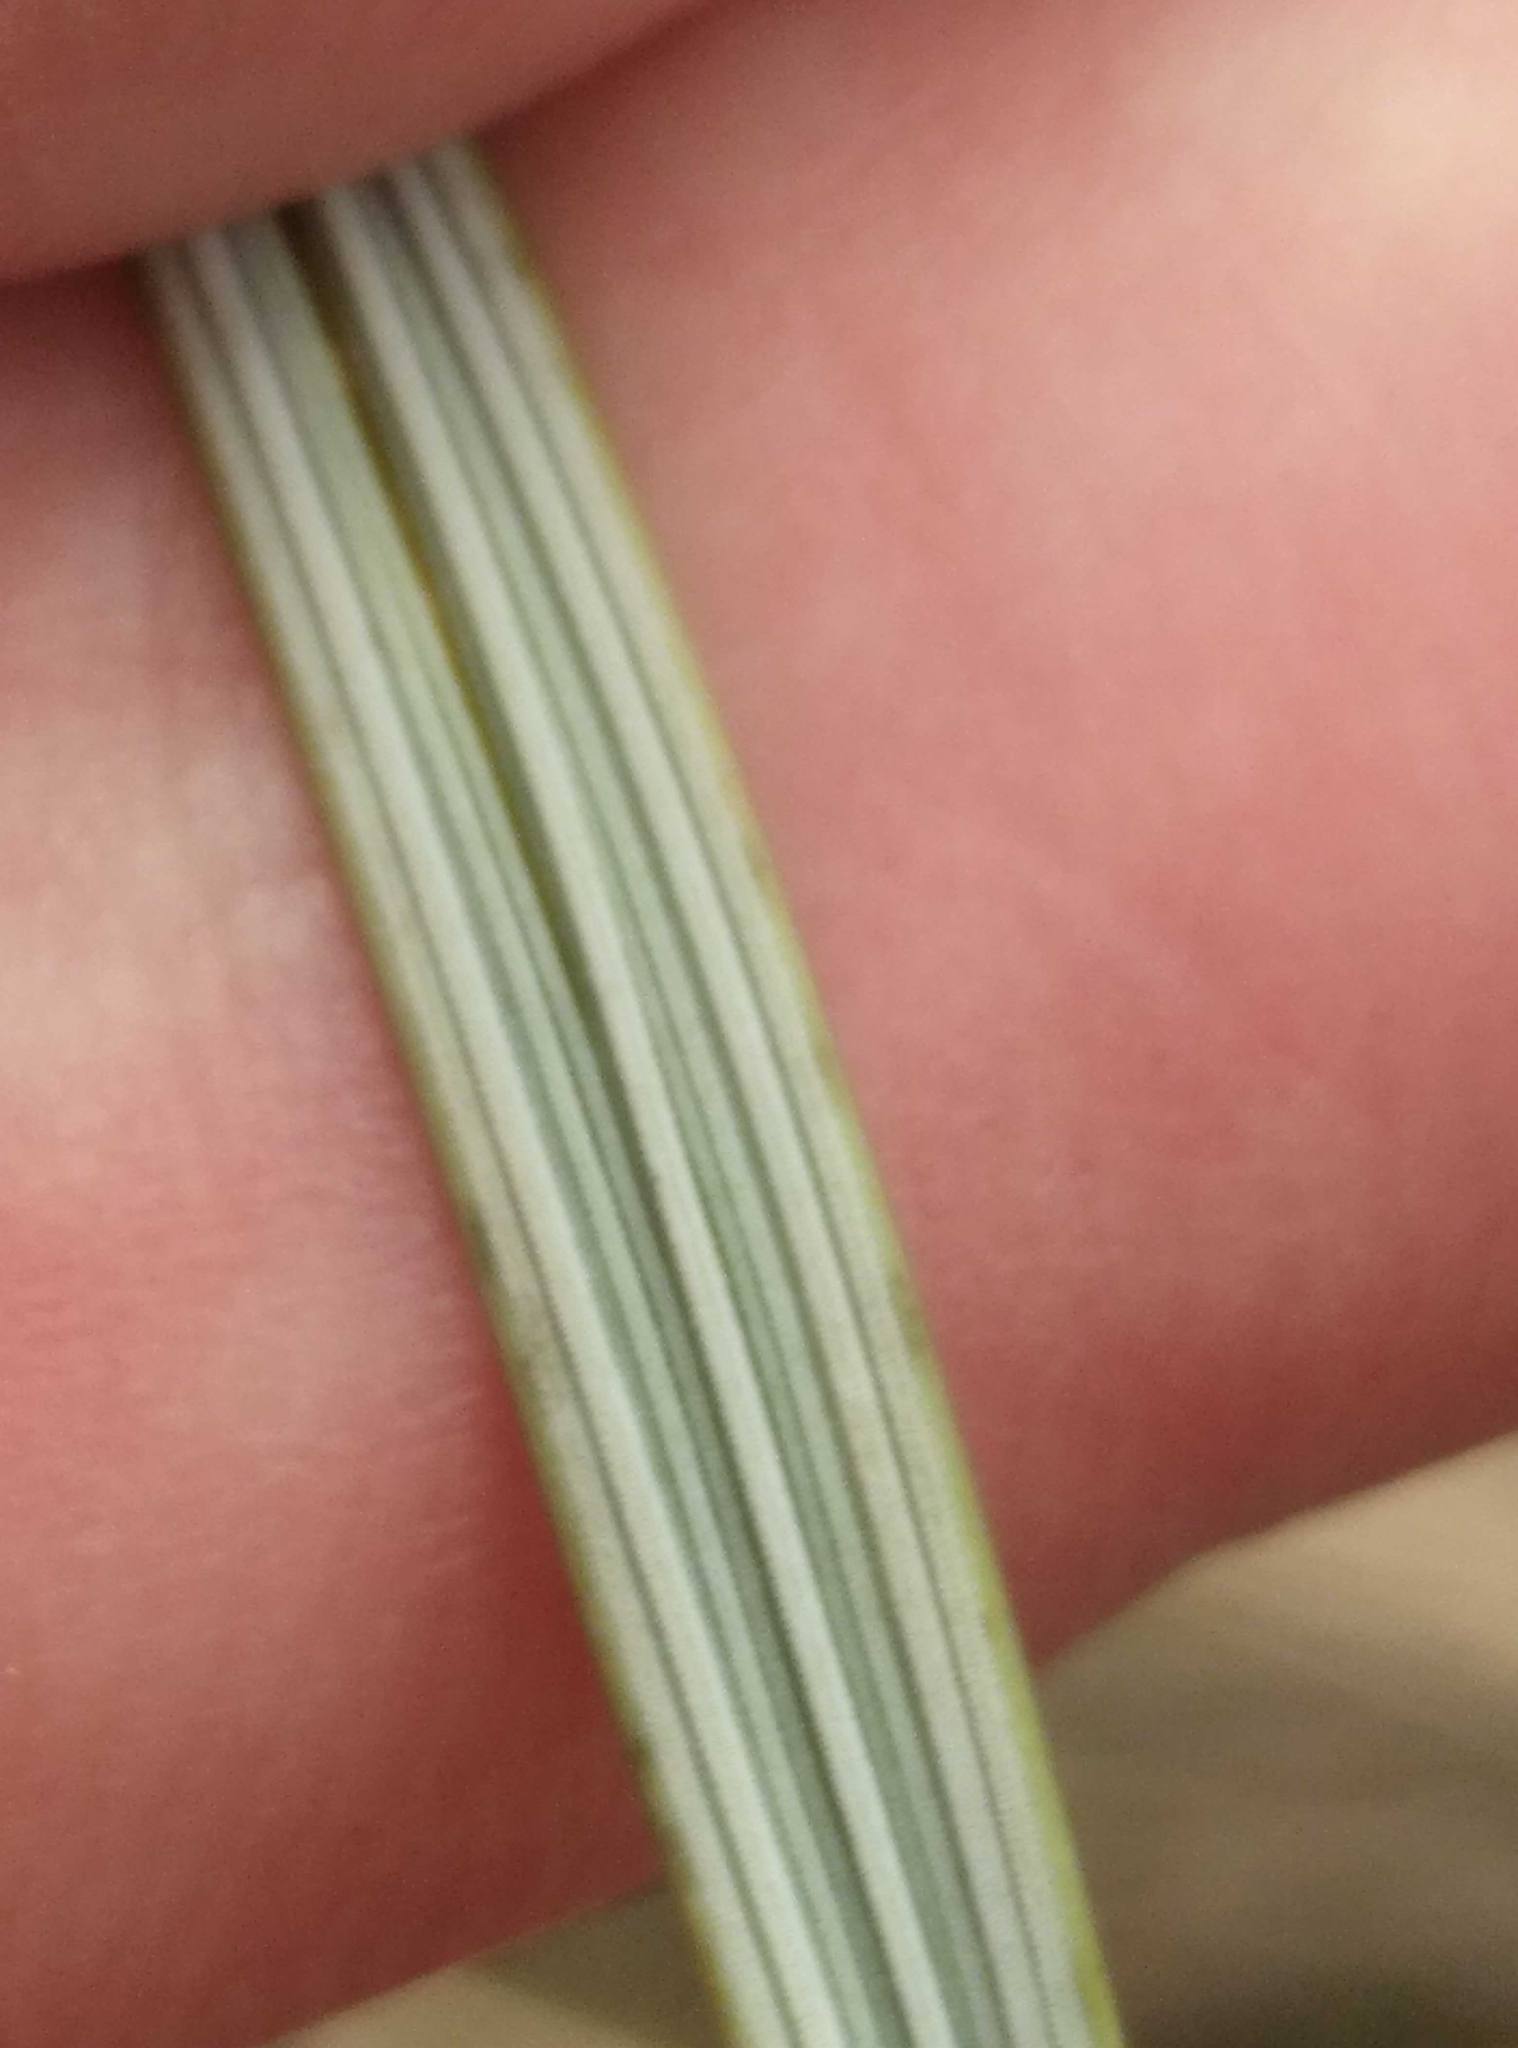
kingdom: Plantae
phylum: Tracheophyta
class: Liliopsida
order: Poales
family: Poaceae
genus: Calamagrostis
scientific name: Calamagrostis arenaria
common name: European beachgrass
